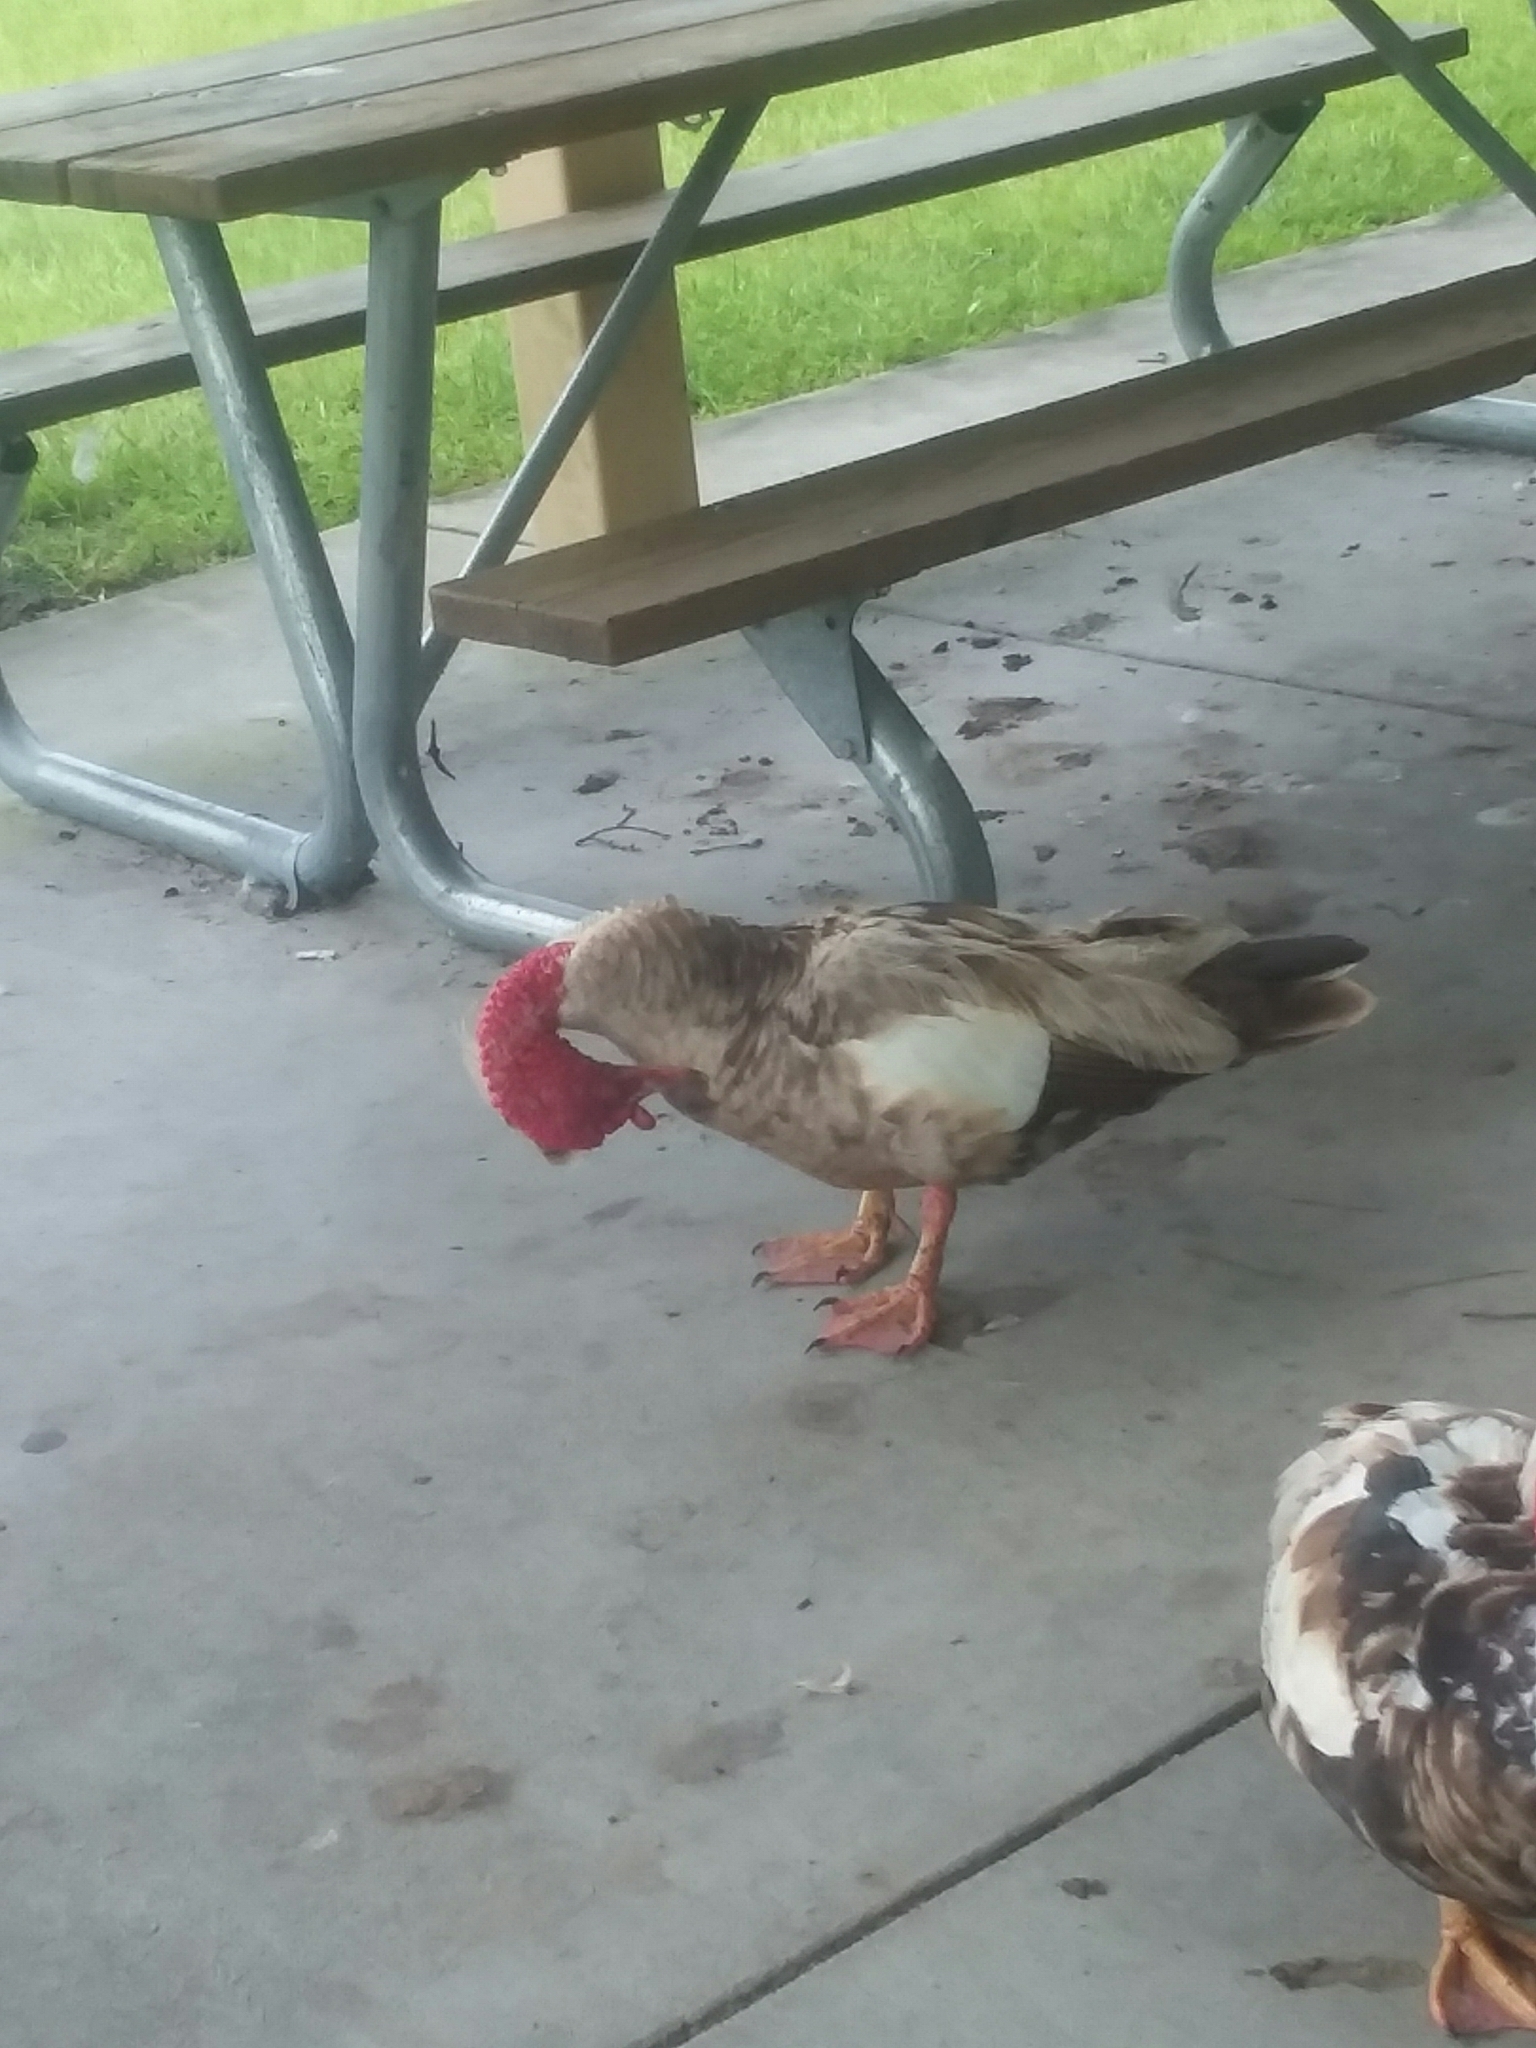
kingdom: Animalia
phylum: Chordata
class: Aves
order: Anseriformes
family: Anatidae
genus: Cairina
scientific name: Cairina moschata
